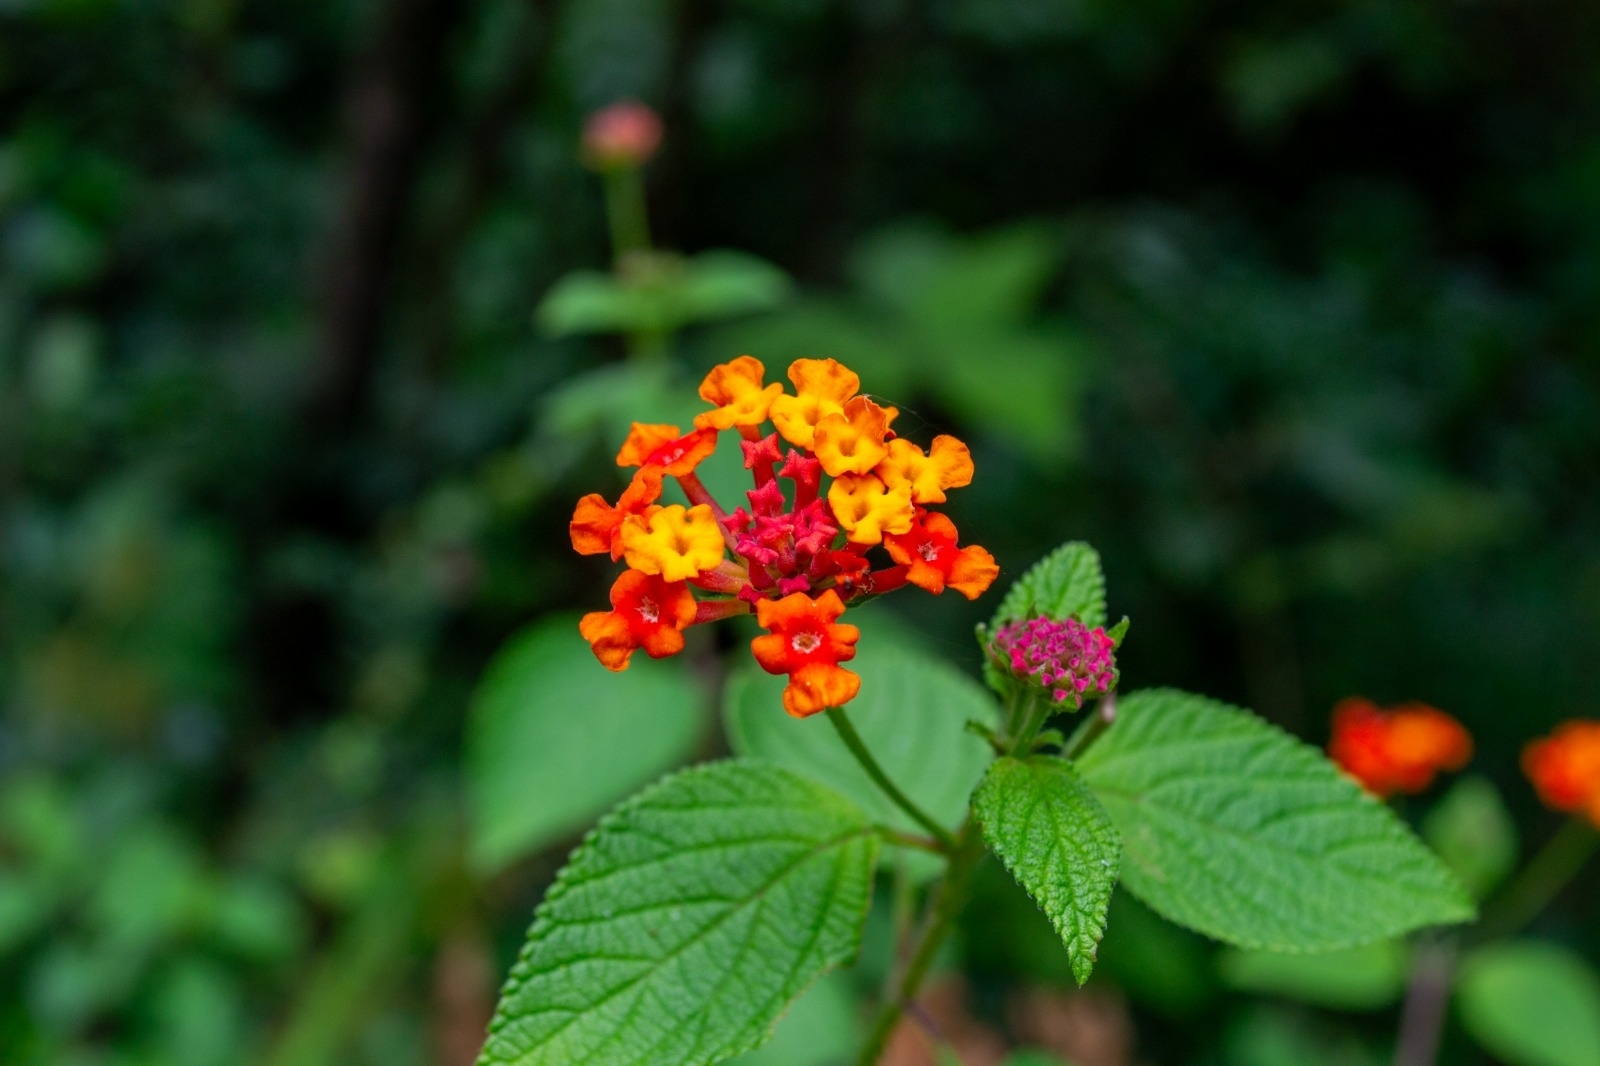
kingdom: Plantae
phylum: Tracheophyta
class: Magnoliopsida
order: Lamiales
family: Verbenaceae
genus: Lantana
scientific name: Lantana camara
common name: Lantana
